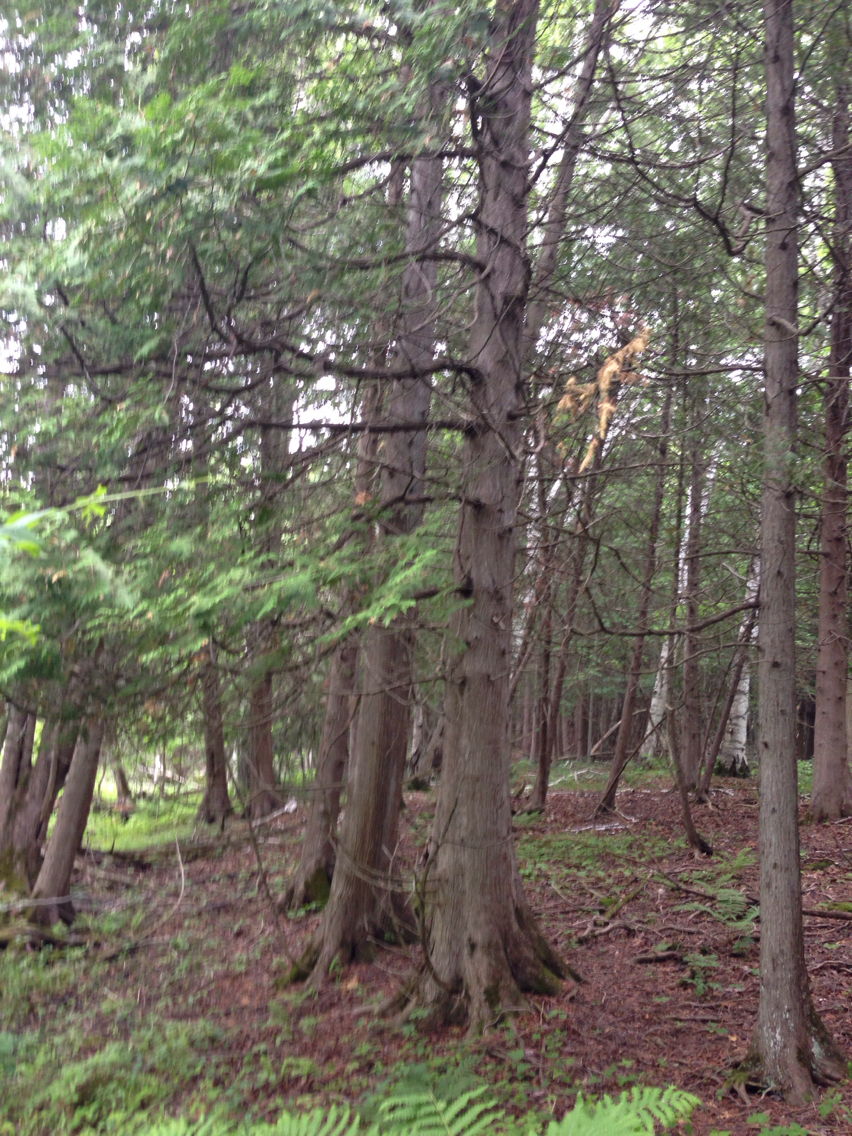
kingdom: Plantae
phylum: Tracheophyta
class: Pinopsida
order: Pinales
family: Cupressaceae
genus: Thuja
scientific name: Thuja occidentalis
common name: Northern white-cedar
